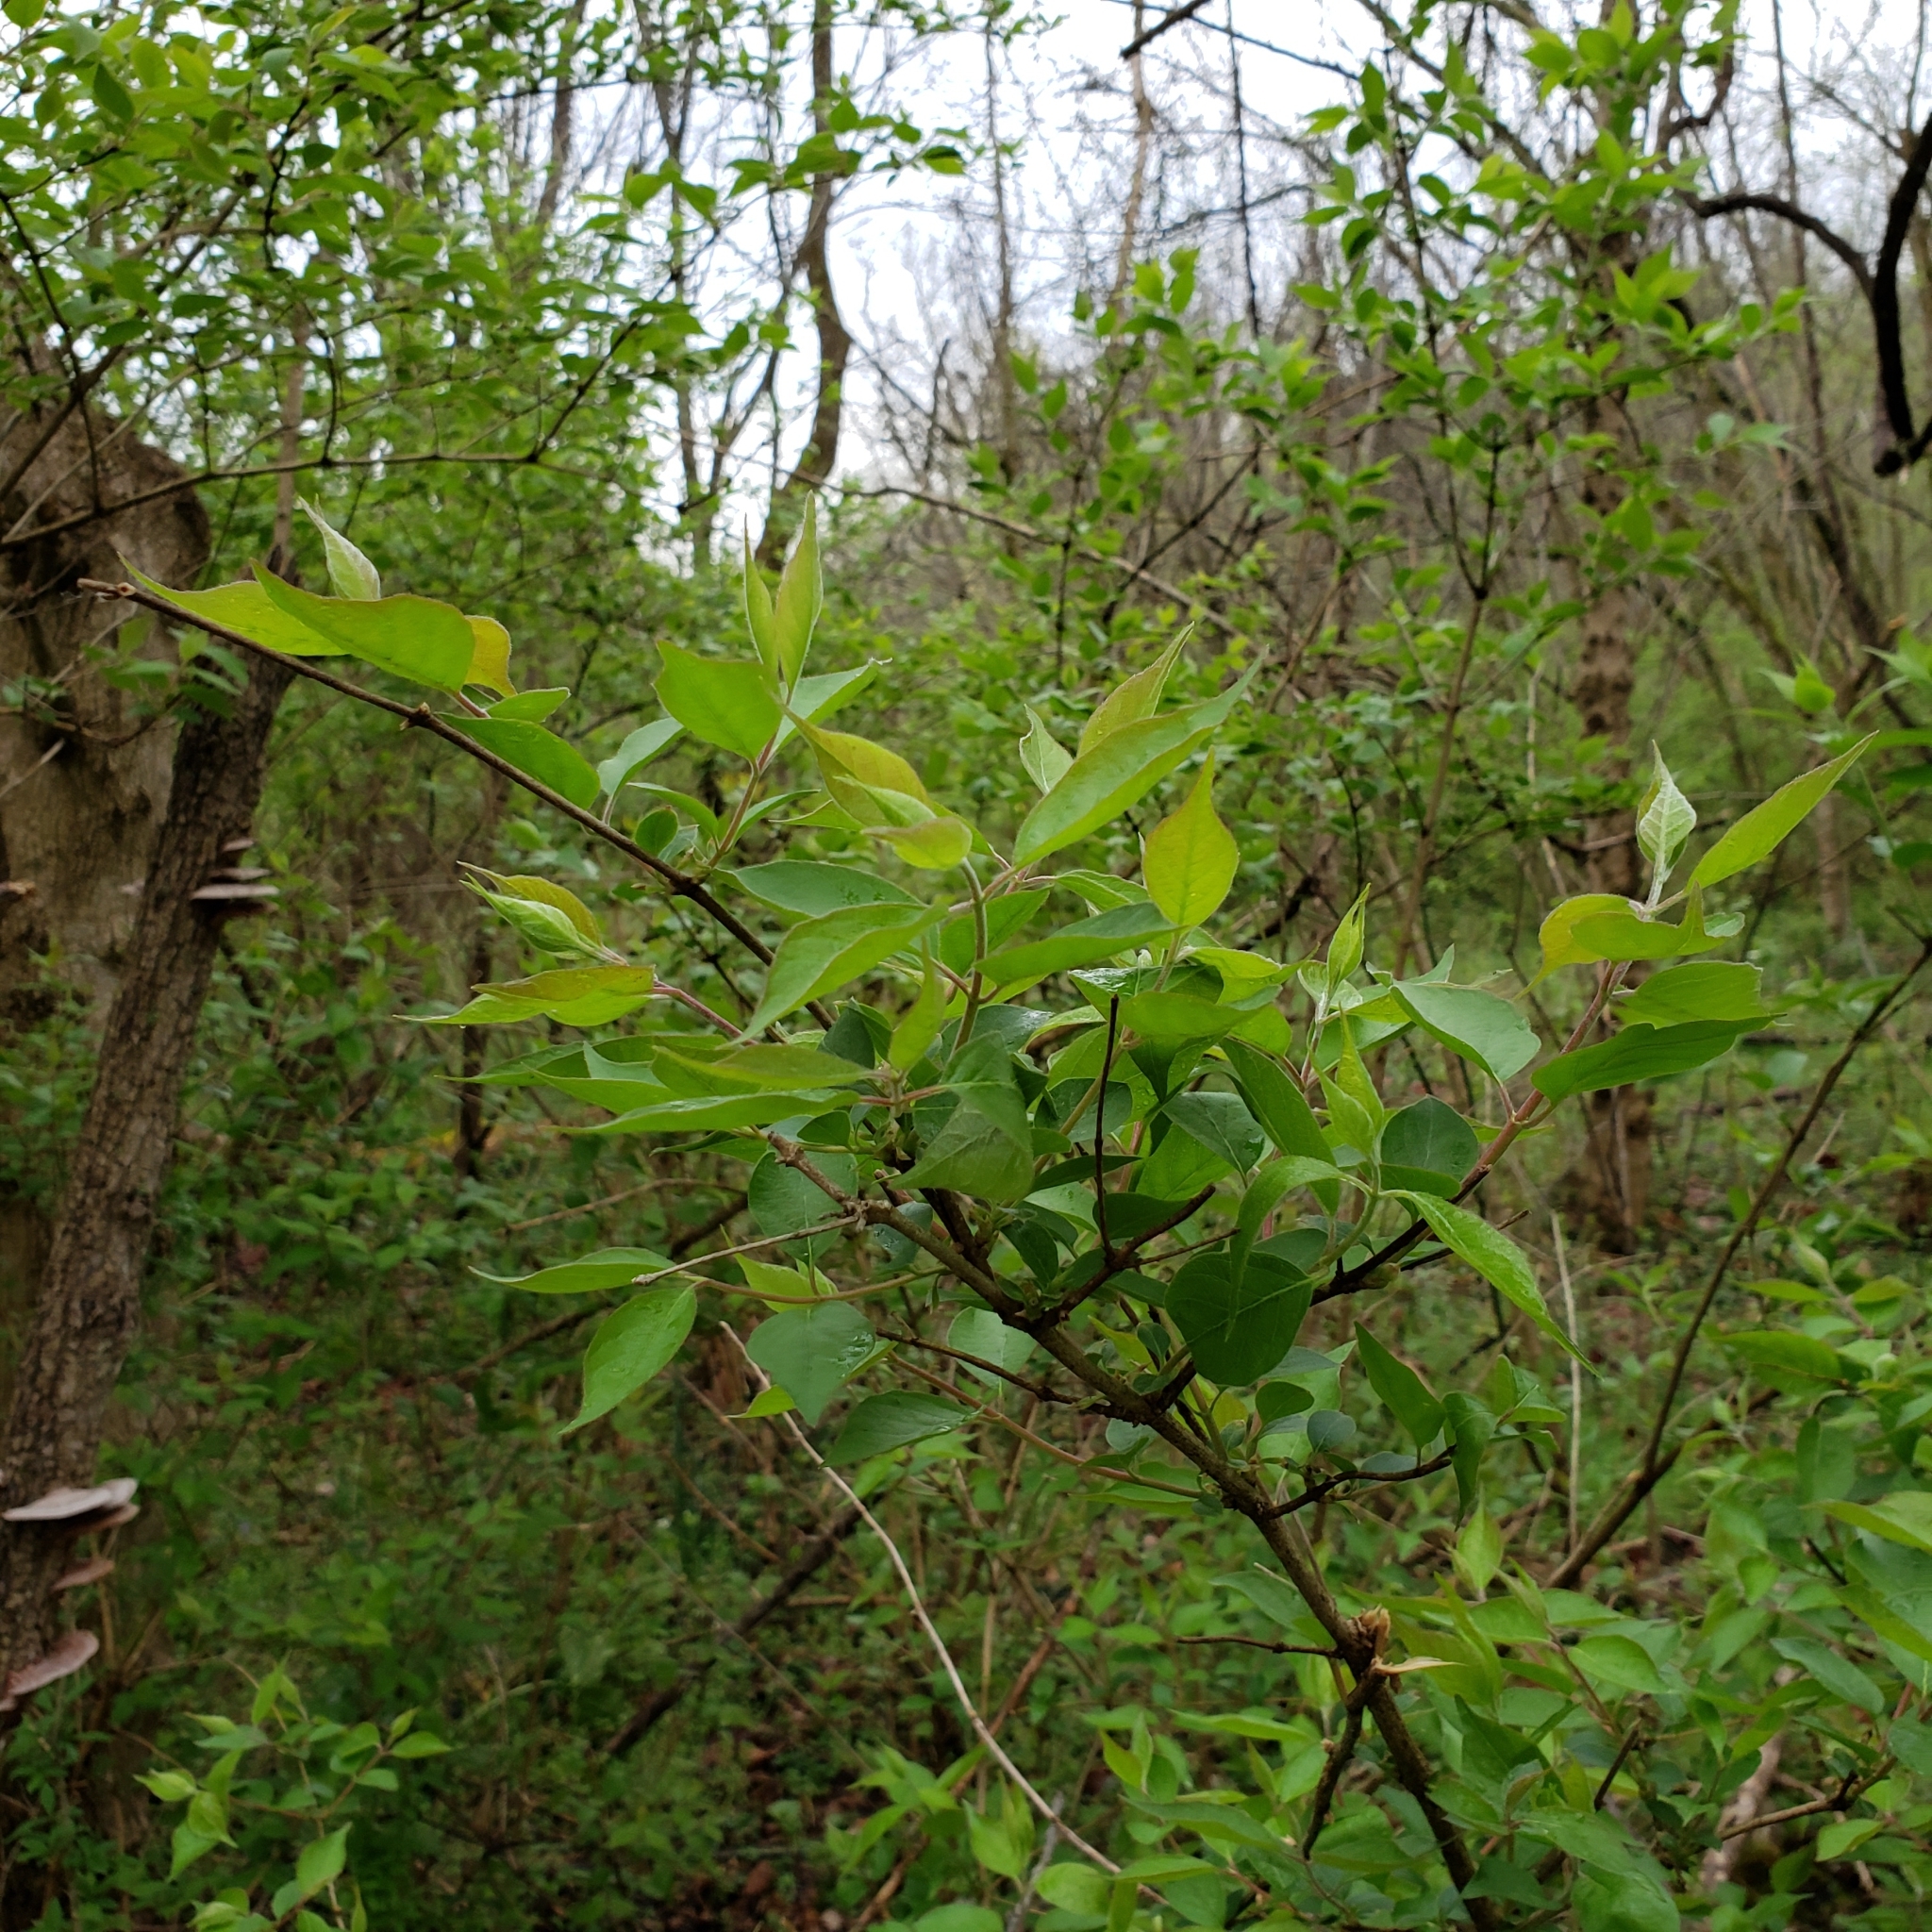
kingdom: Plantae
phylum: Tracheophyta
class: Magnoliopsida
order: Dipsacales
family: Caprifoliaceae
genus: Lonicera
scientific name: Lonicera maackii
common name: Amur honeysuckle
